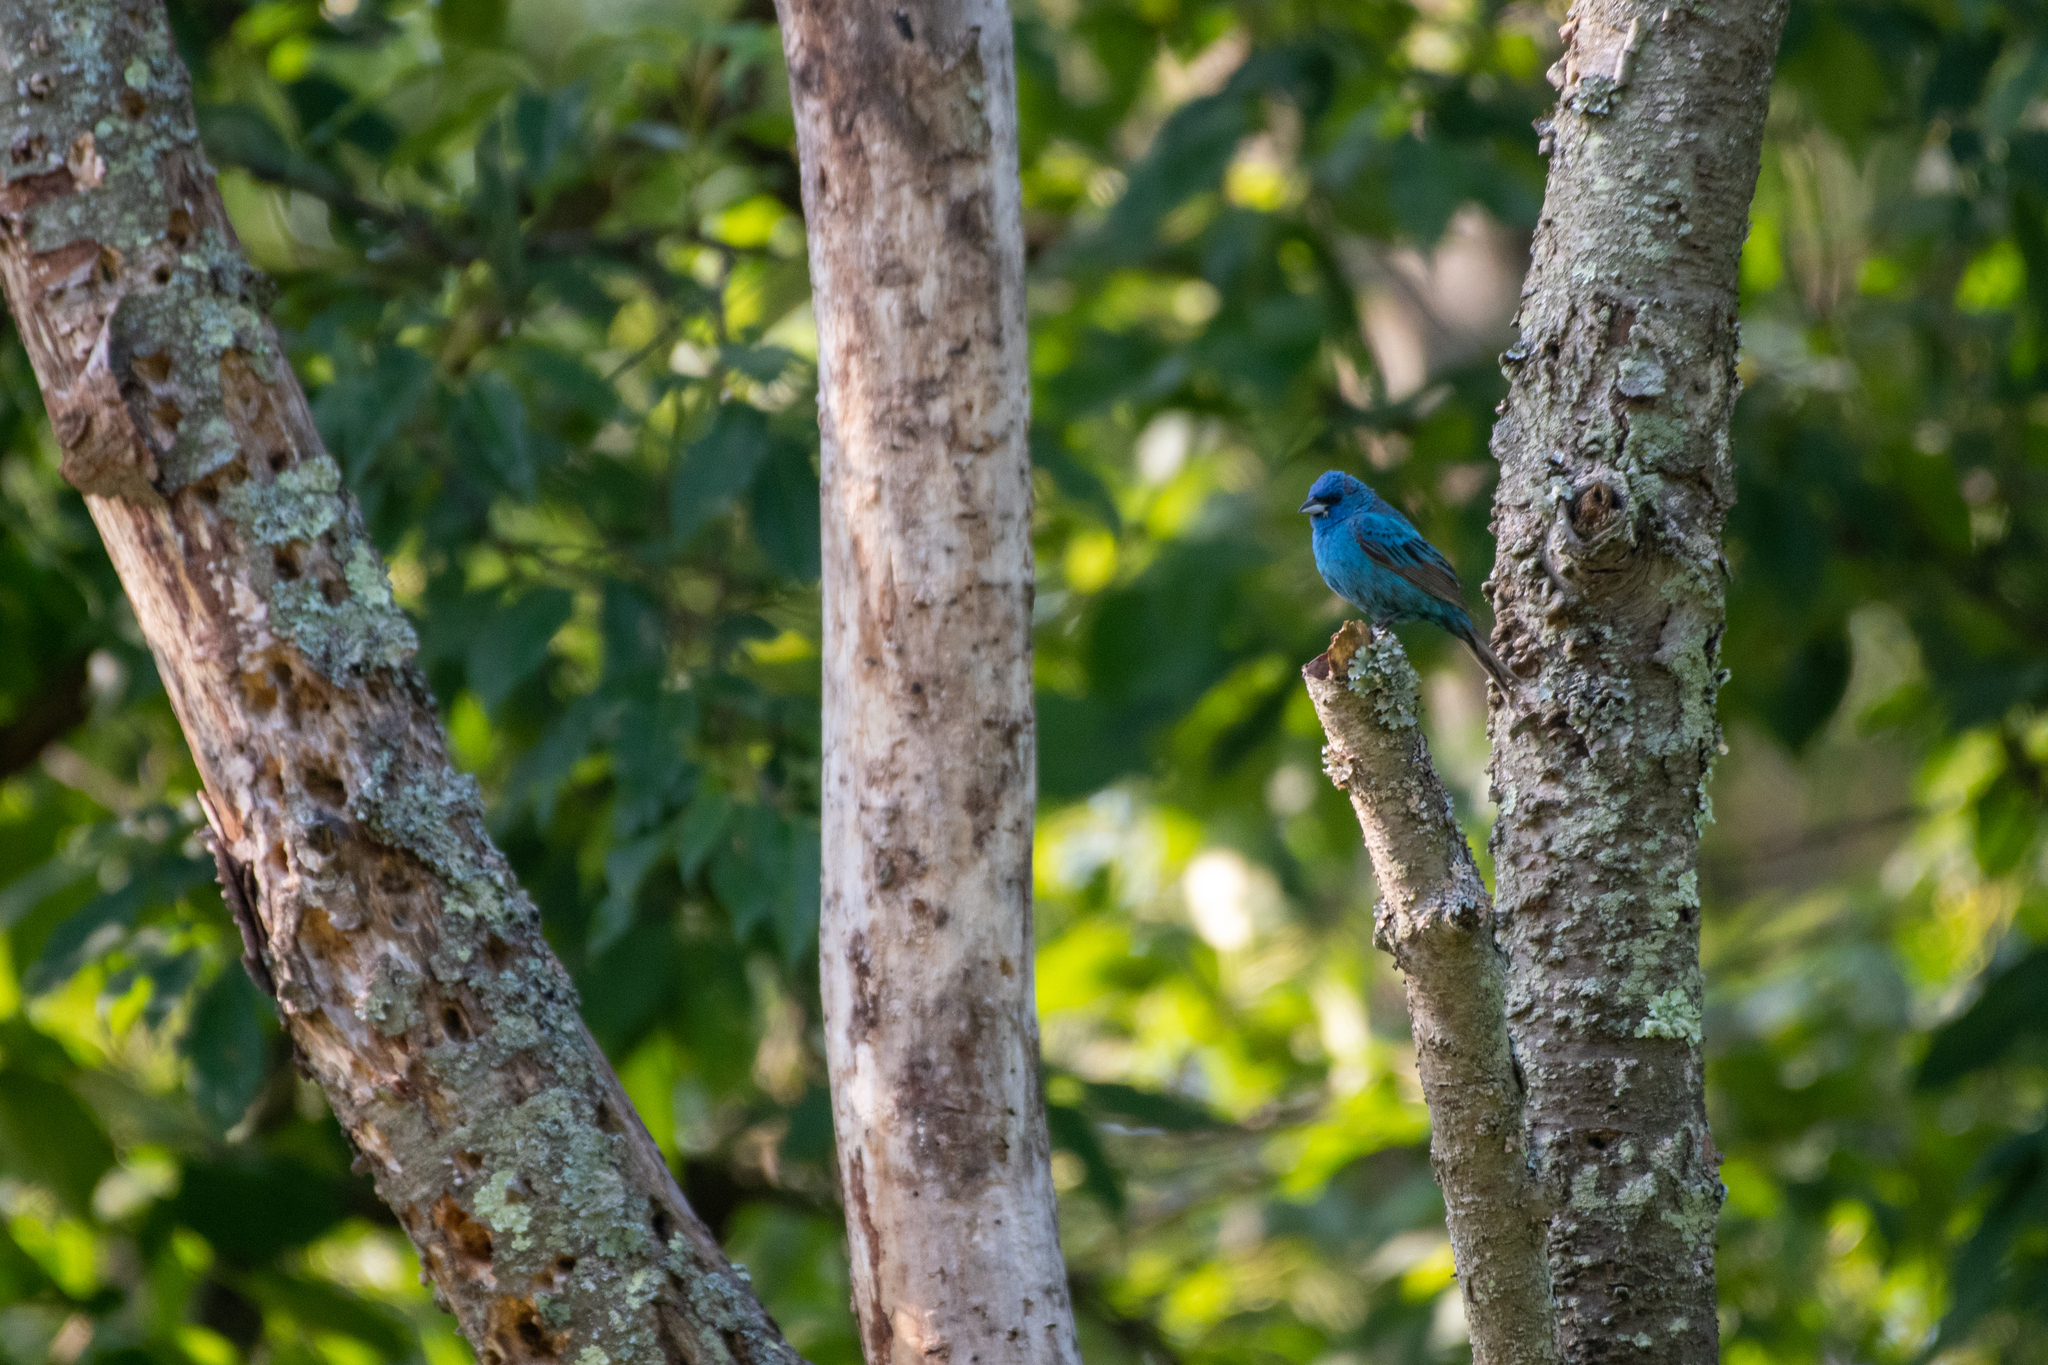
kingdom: Animalia
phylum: Chordata
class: Aves
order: Passeriformes
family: Cardinalidae
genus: Passerina
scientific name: Passerina cyanea
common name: Indigo bunting
